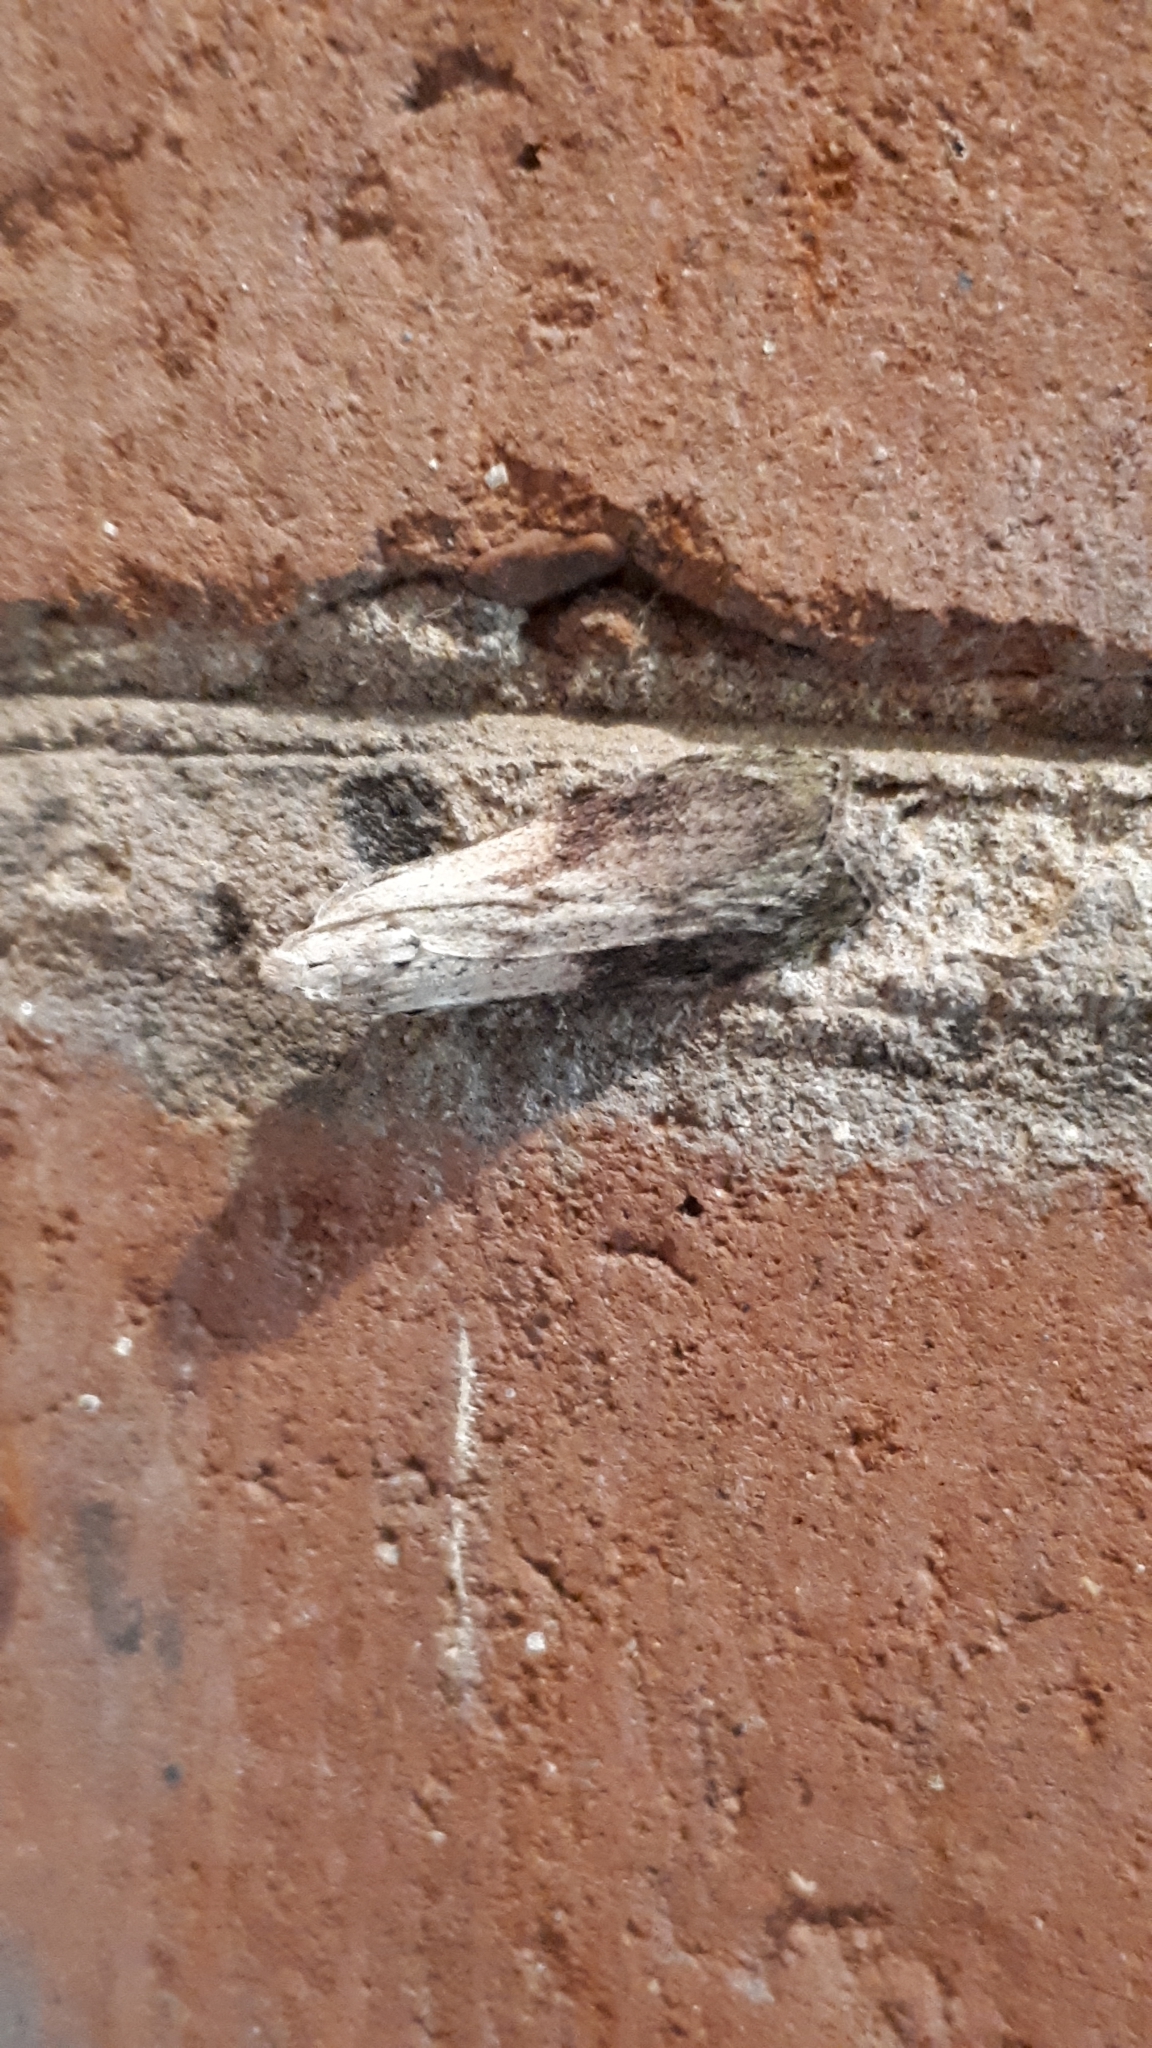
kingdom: Animalia
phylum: Arthropoda
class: Insecta
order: Lepidoptera
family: Pyralidae
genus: Aphomia
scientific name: Aphomia sociella
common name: Bee moth
